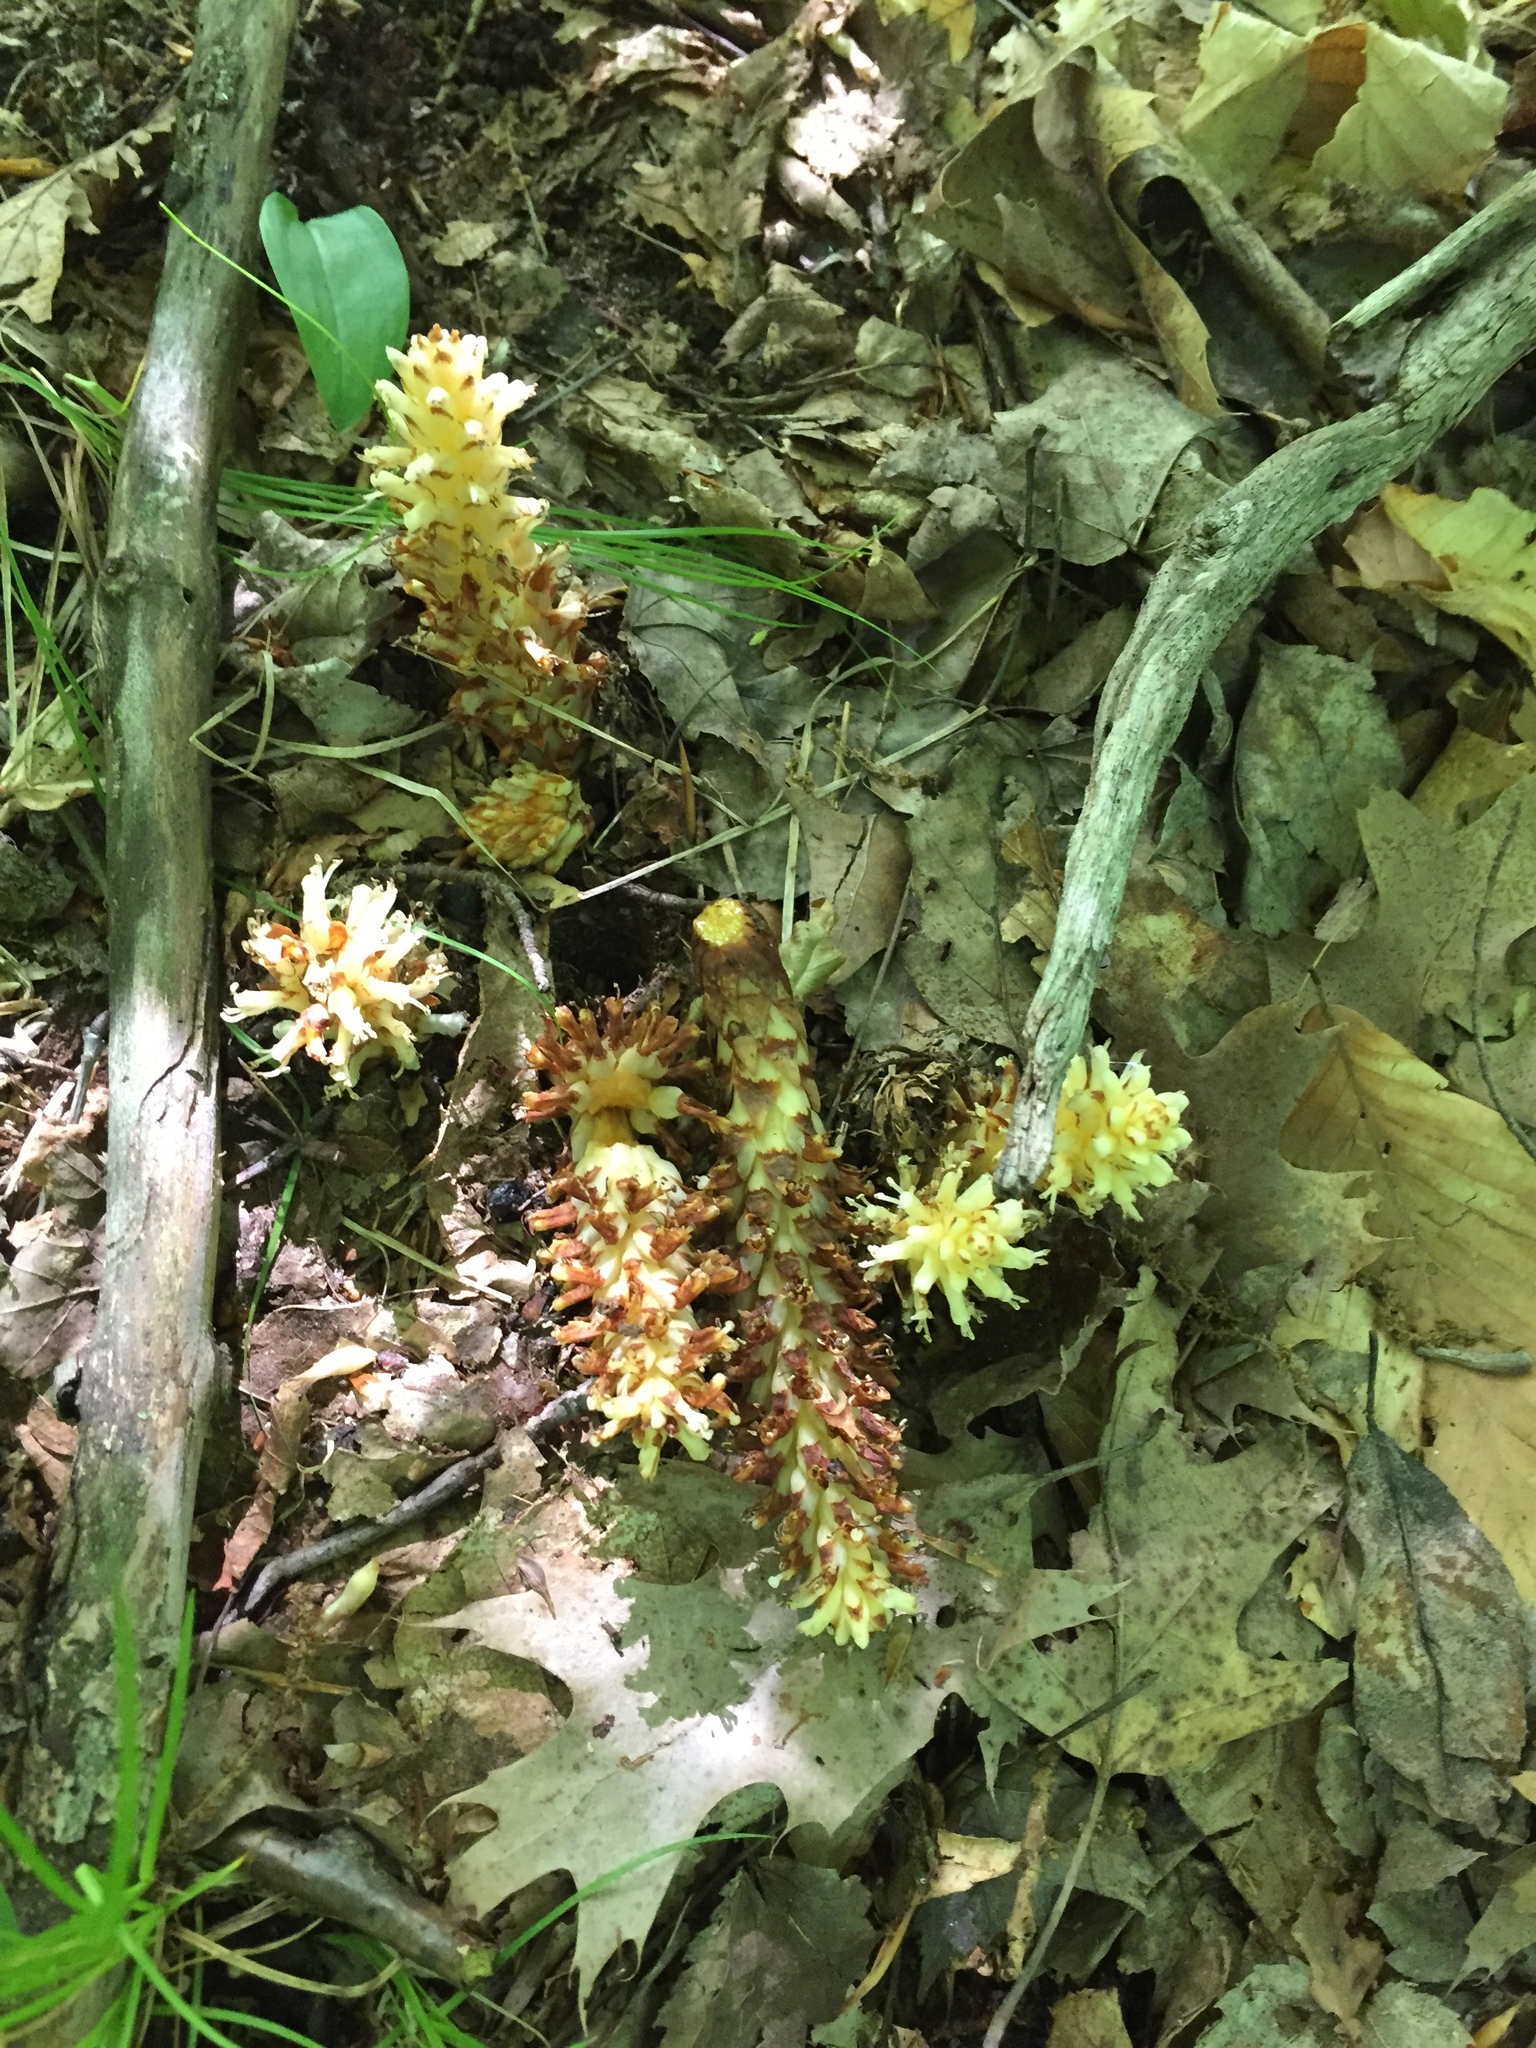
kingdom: Plantae
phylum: Tracheophyta
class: Magnoliopsida
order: Lamiales
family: Orobanchaceae
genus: Conopholis
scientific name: Conopholis americana
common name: American cancer-root
